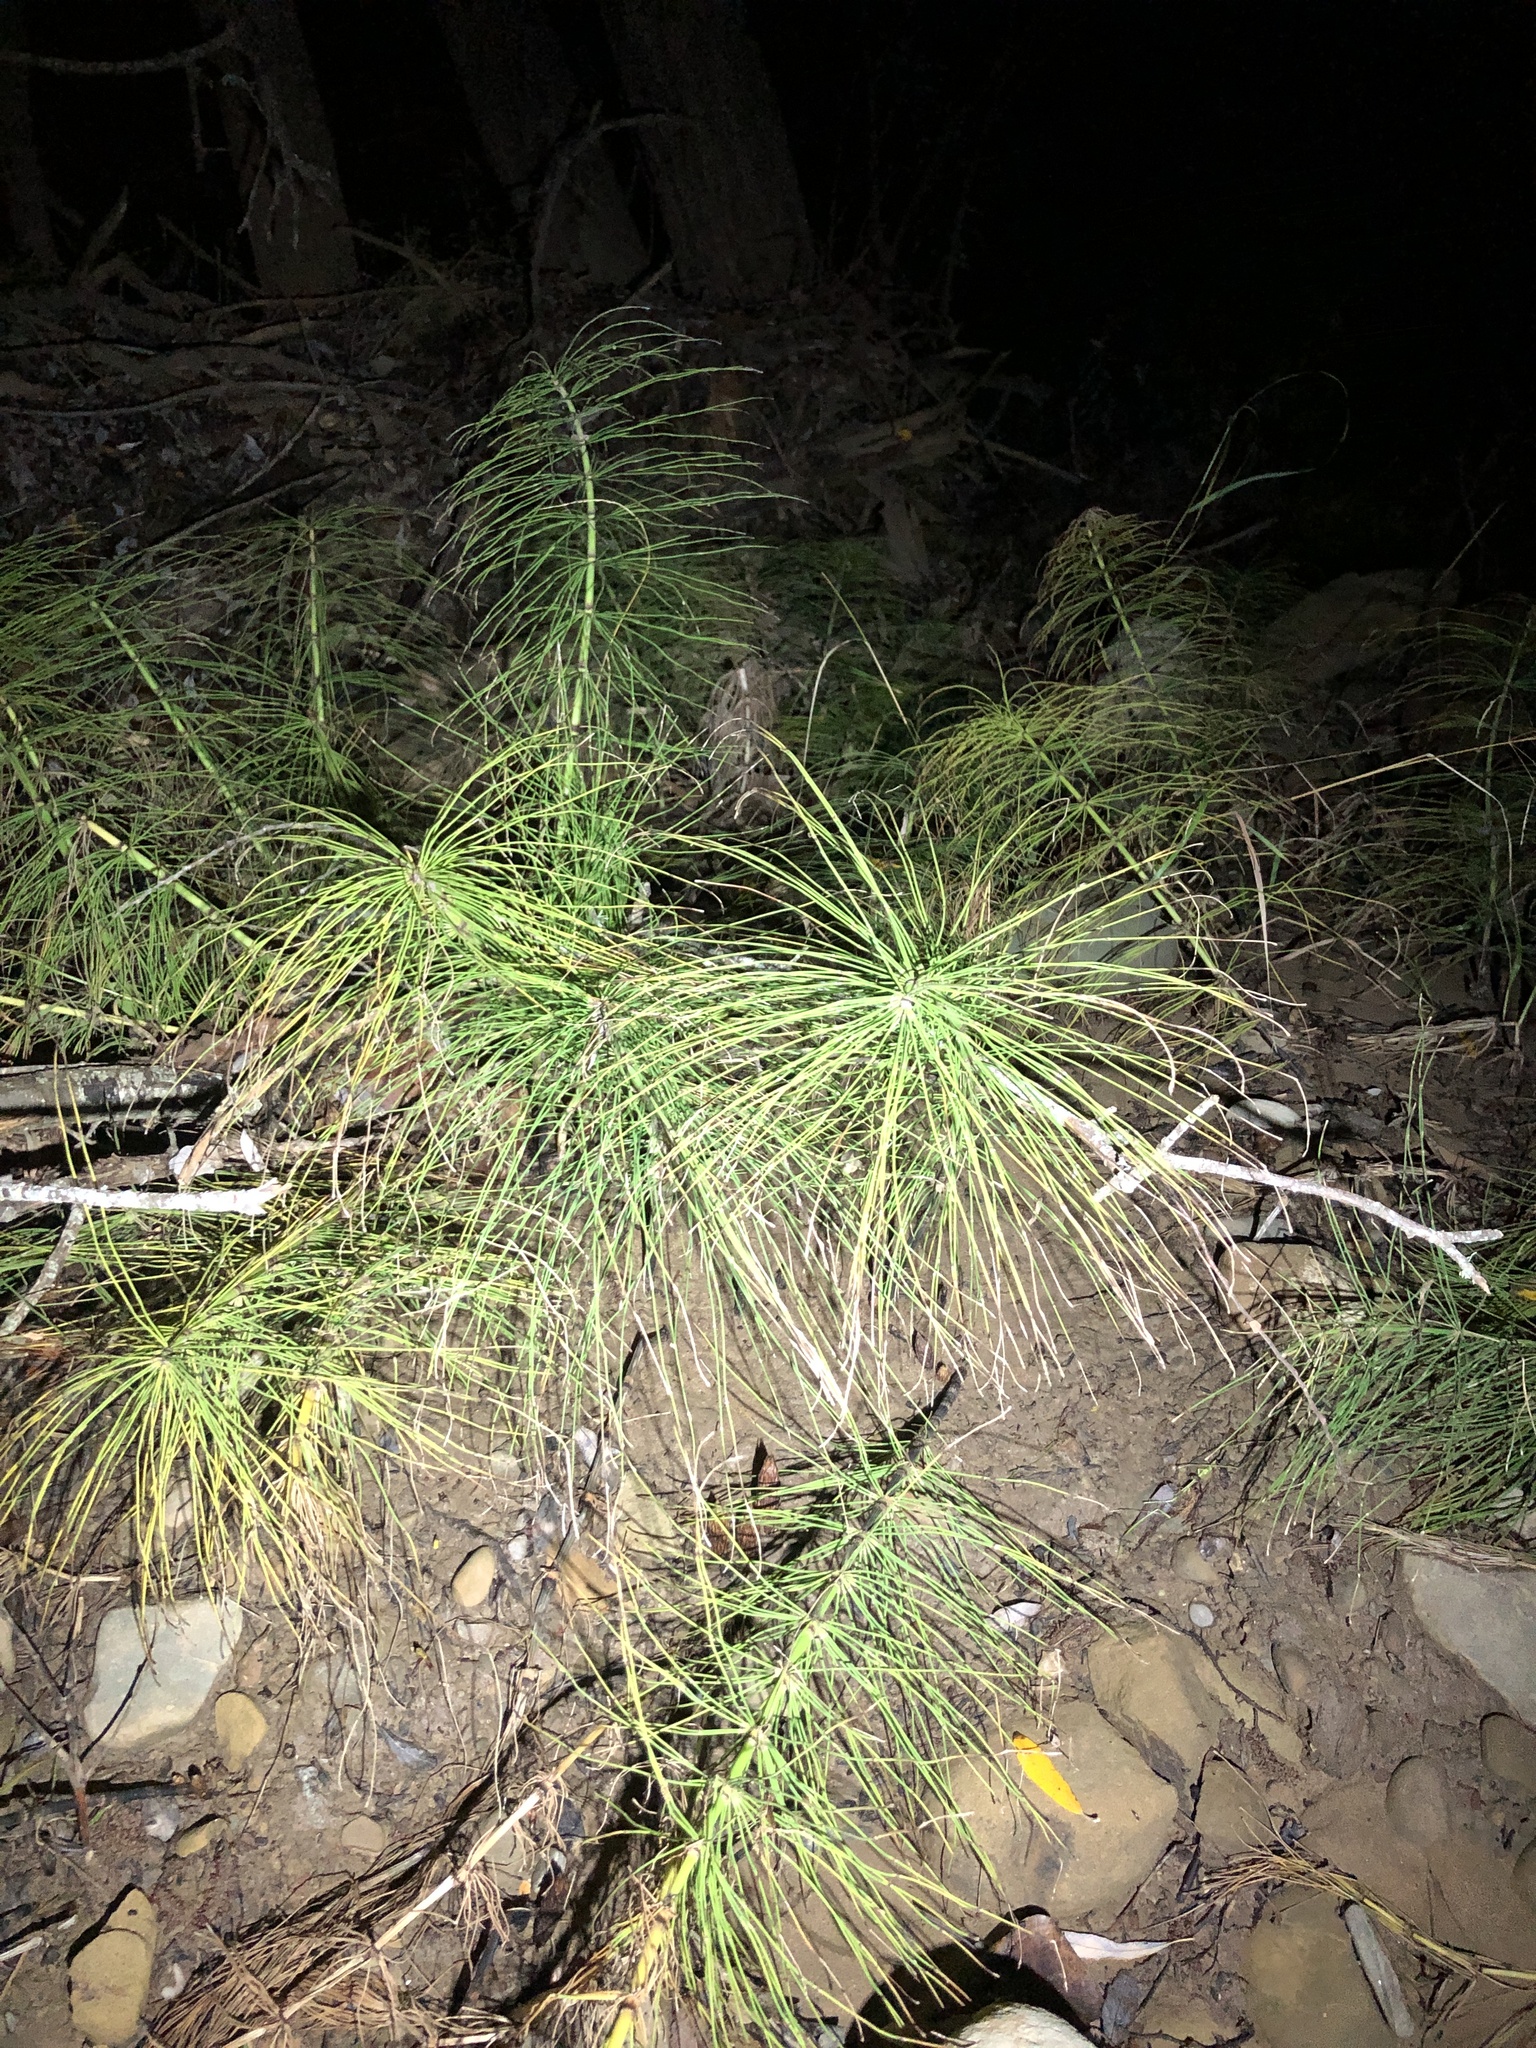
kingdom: Plantae
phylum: Tracheophyta
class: Polypodiopsida
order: Equisetales
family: Equisetaceae
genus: Equisetum
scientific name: Equisetum braunii
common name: Braun's horsetail
